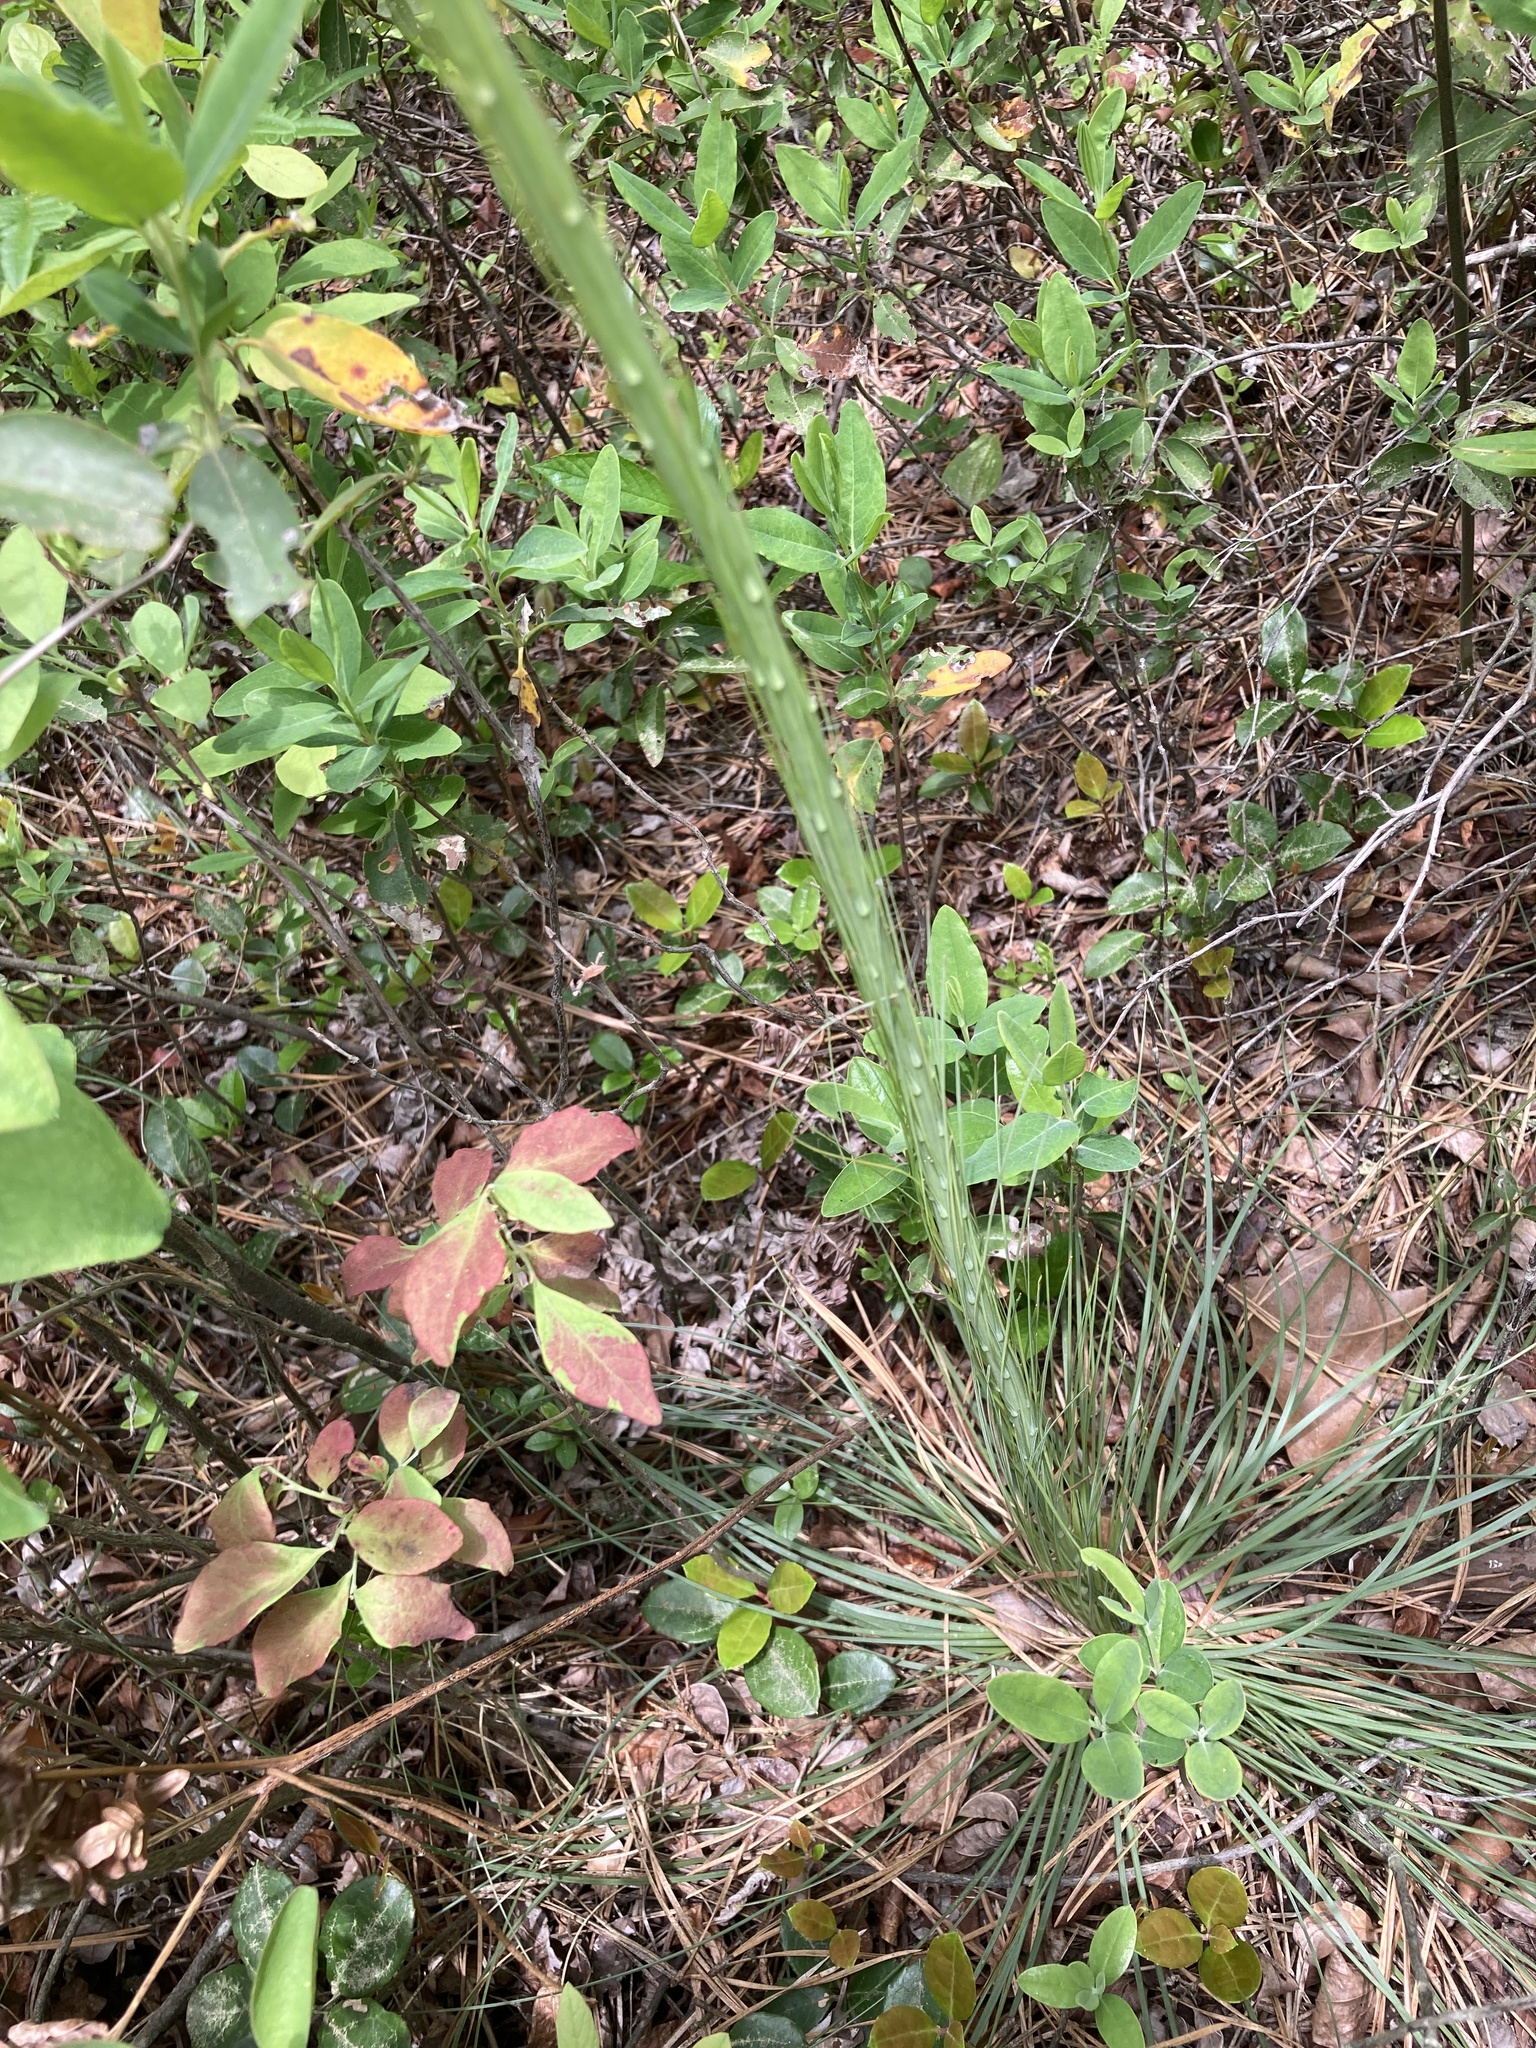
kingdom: Plantae
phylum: Tracheophyta
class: Liliopsida
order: Liliales
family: Melanthiaceae
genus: Xerophyllum
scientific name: Xerophyllum asphodeloides
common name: Mountain-asphodel
